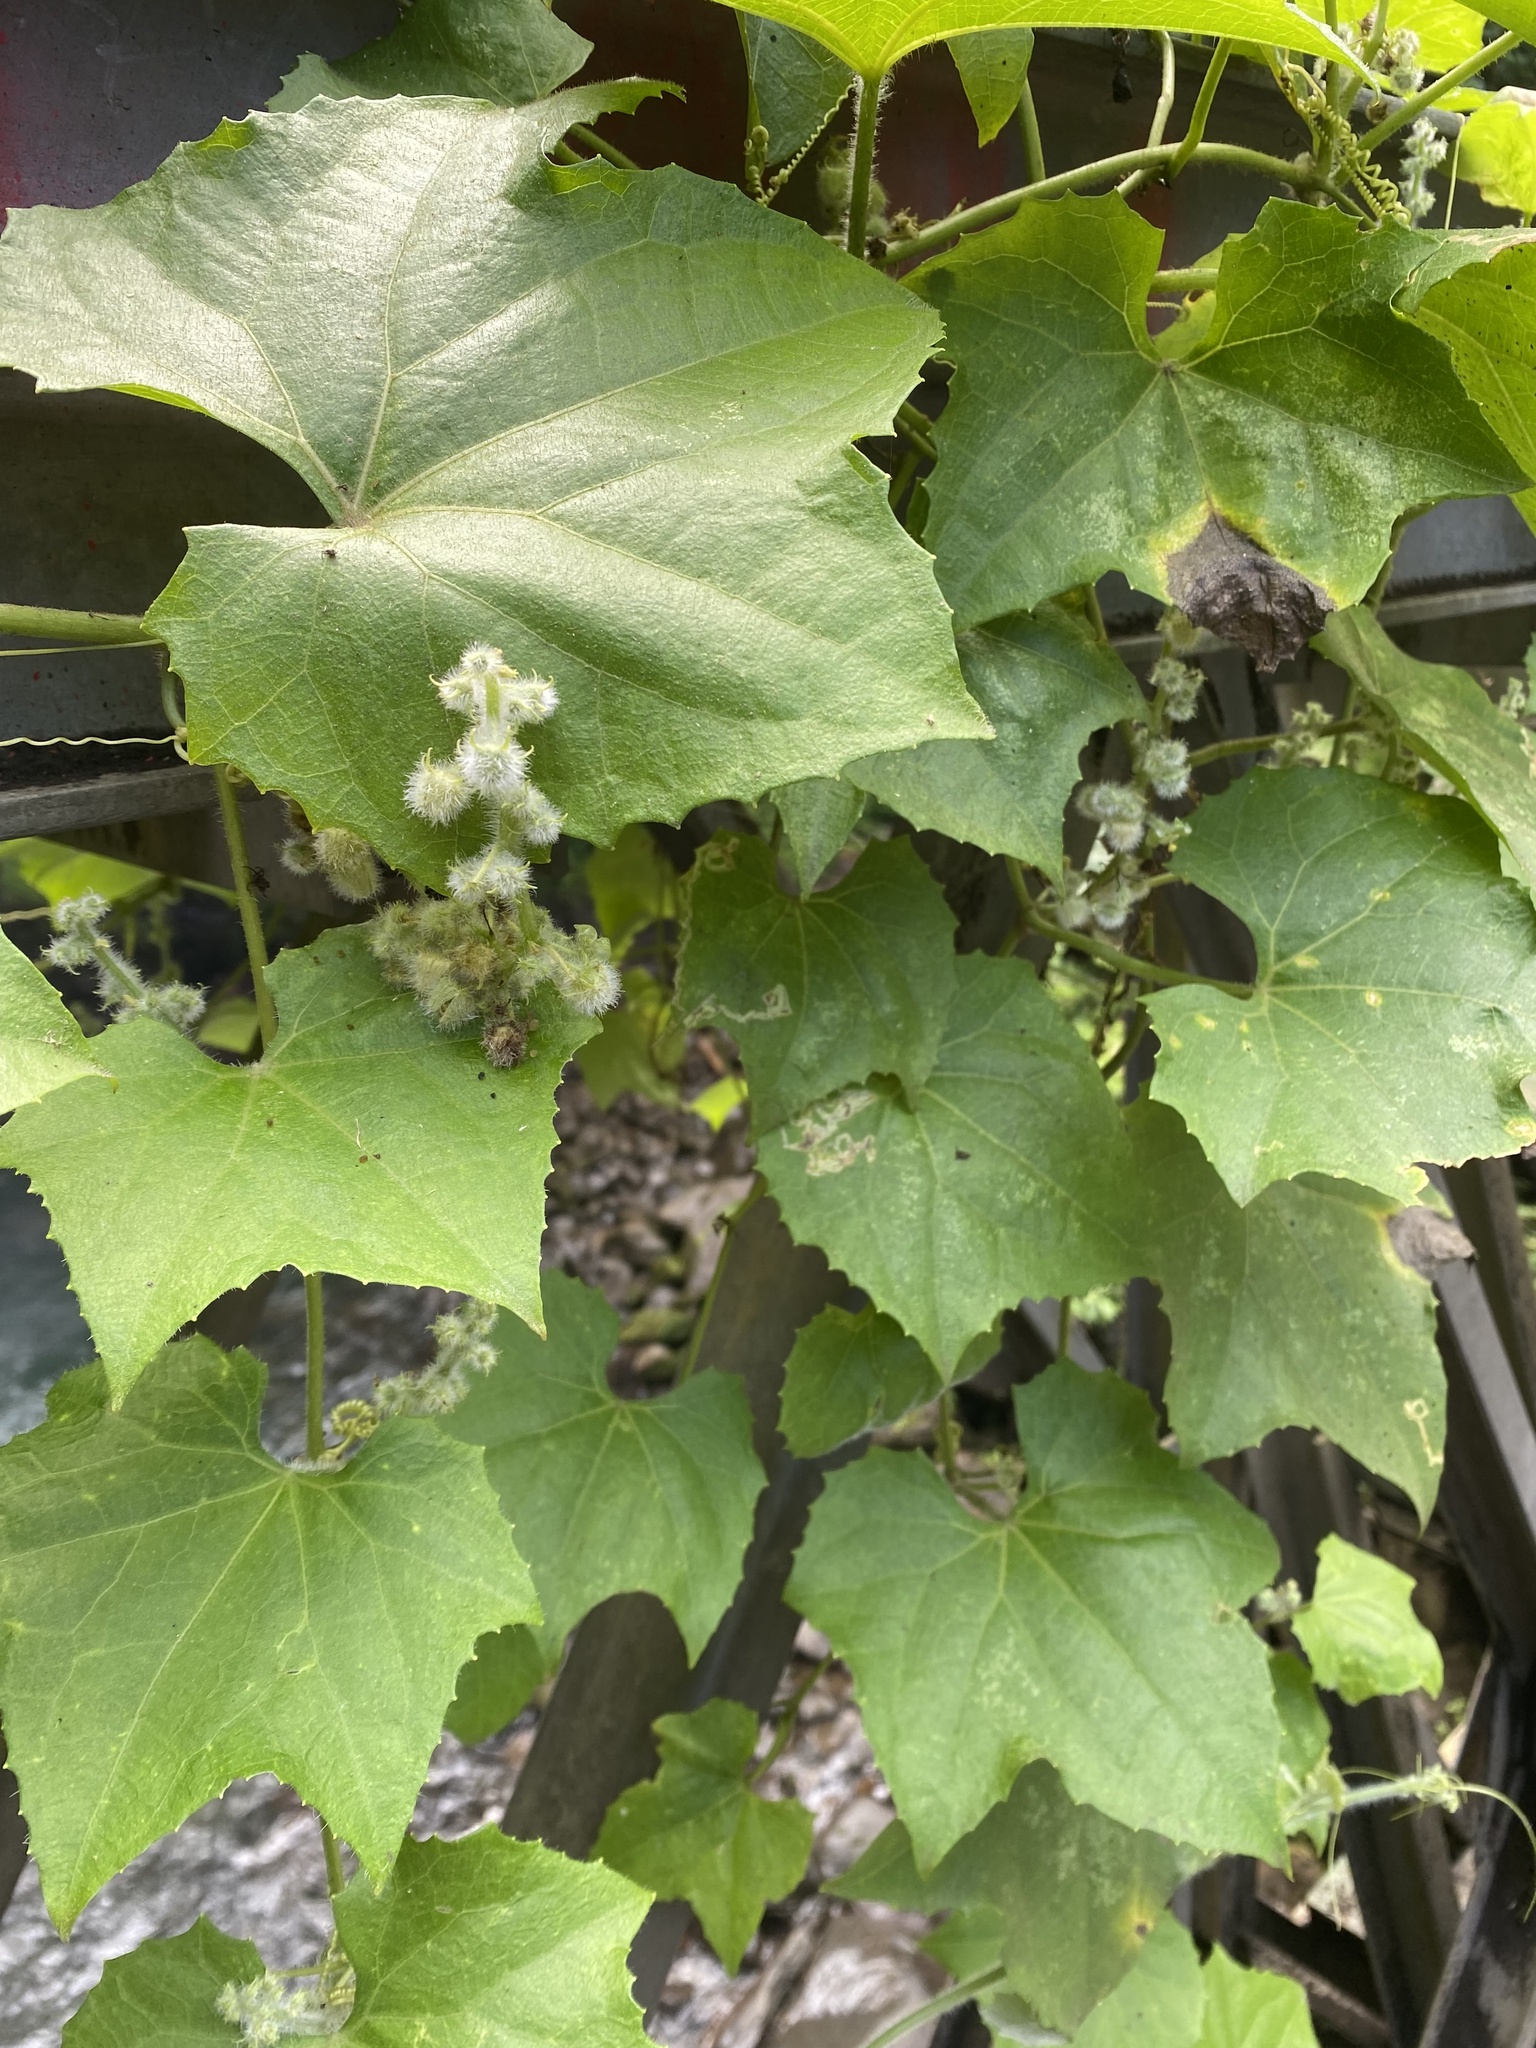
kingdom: Plantae
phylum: Tracheophyta
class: Magnoliopsida
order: Cucurbitales
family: Cucurbitaceae
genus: Luffa
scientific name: Luffa aegyptiaca
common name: Sponge gourd
